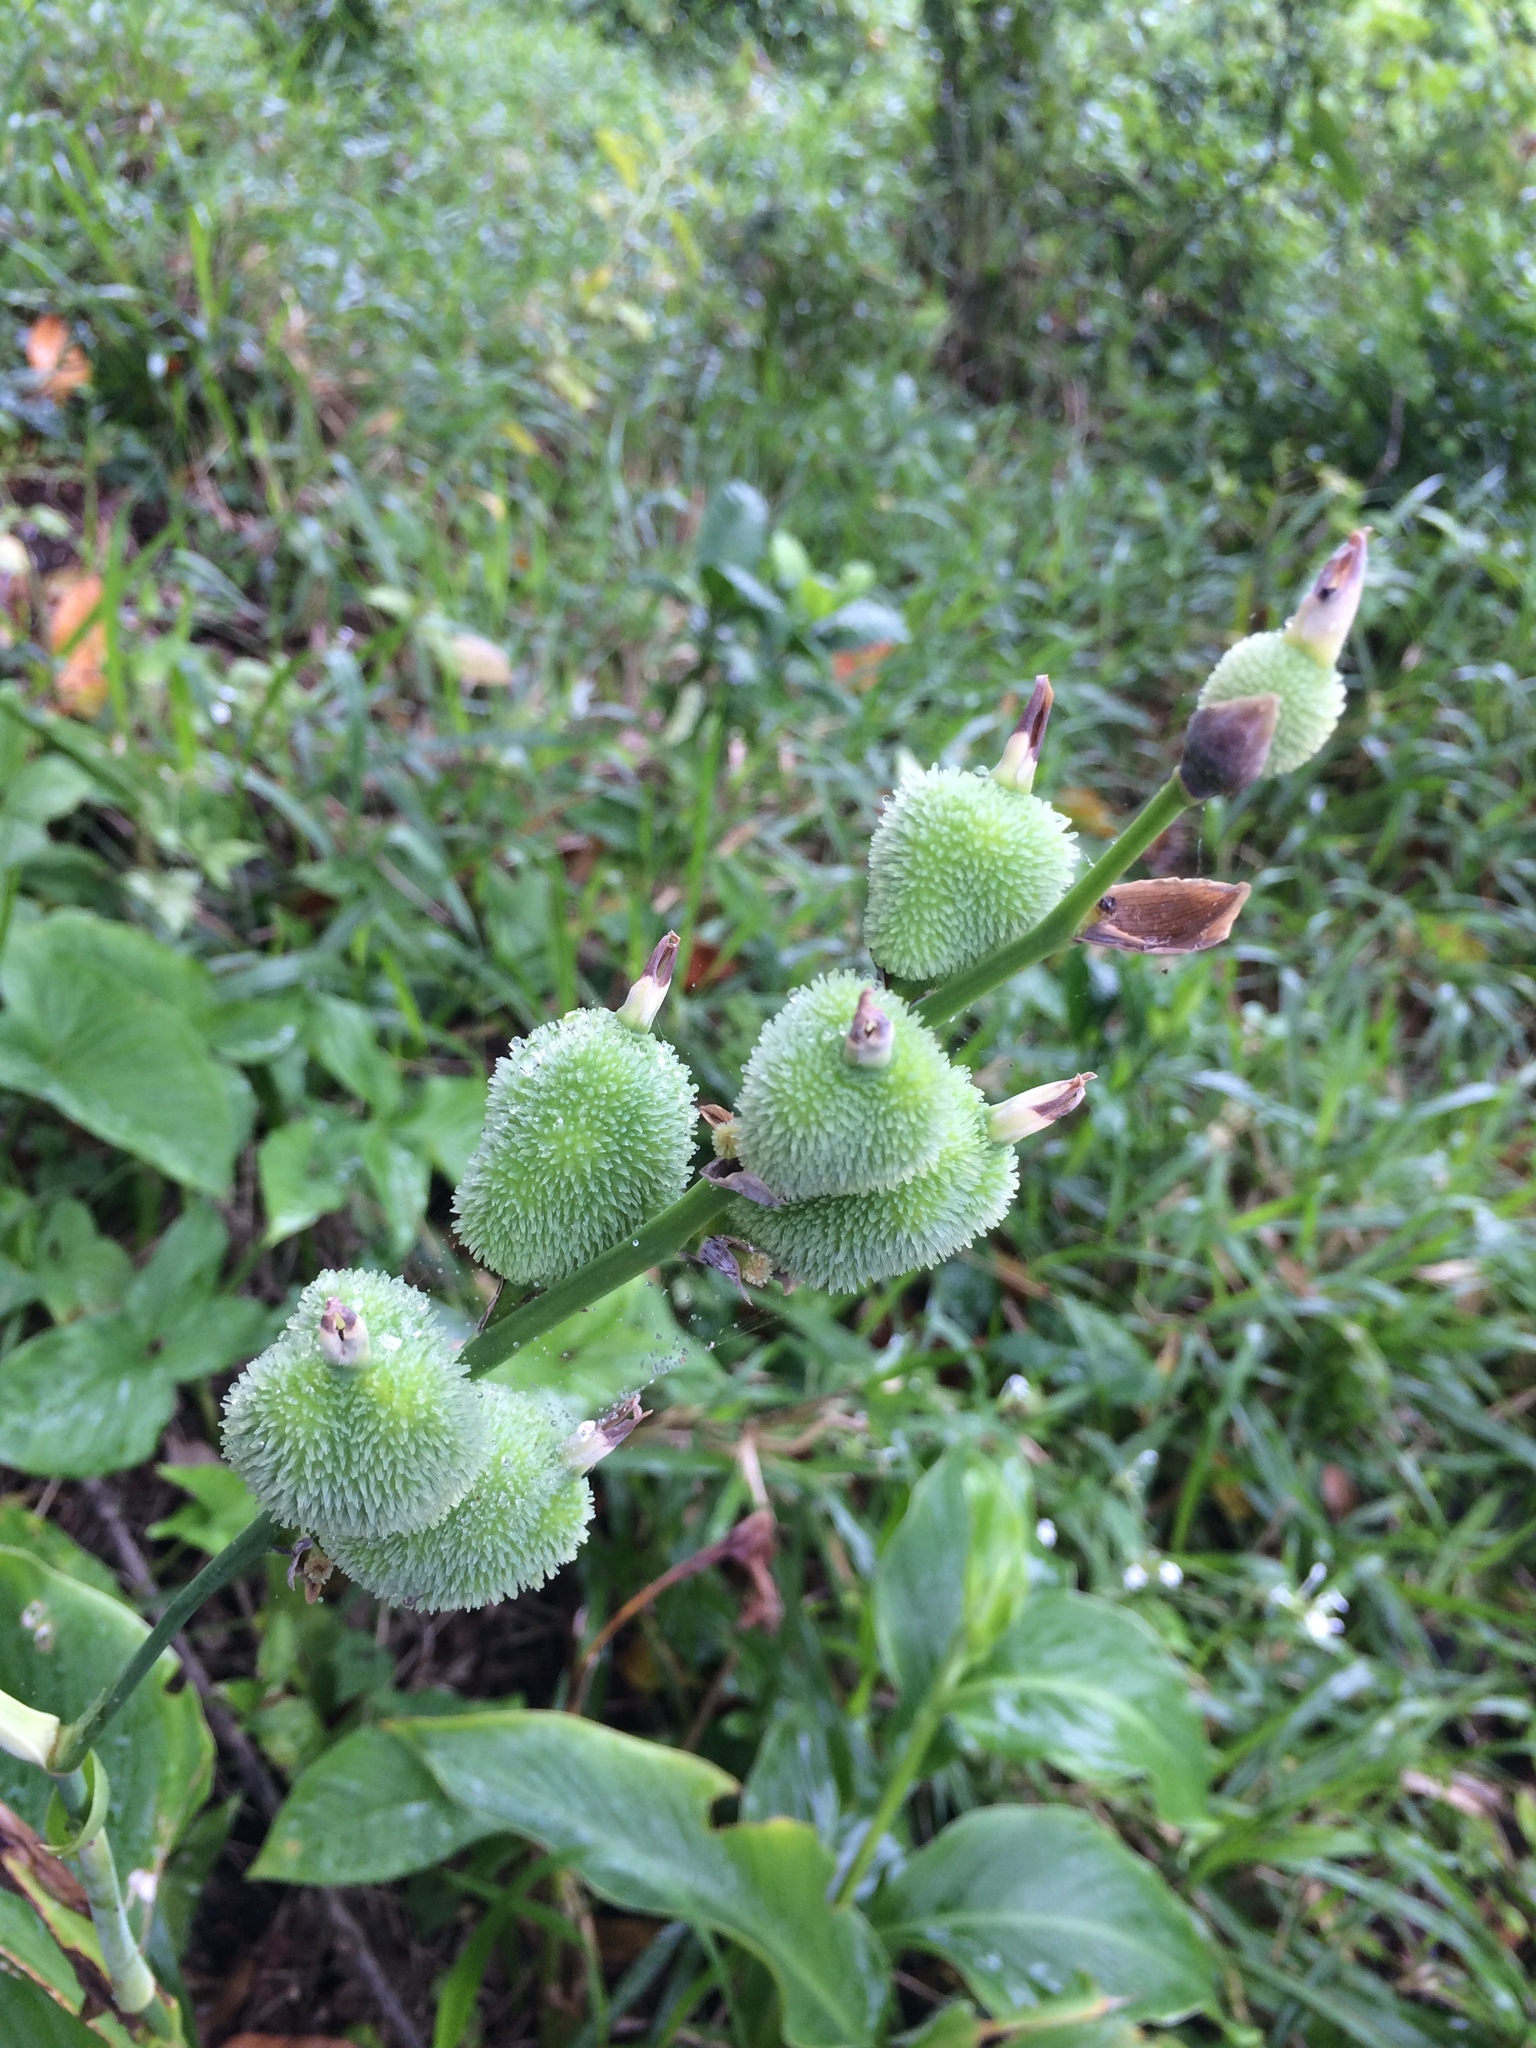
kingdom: Plantae
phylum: Tracheophyta
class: Liliopsida
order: Zingiberales
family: Cannaceae
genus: Canna
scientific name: Canna indica
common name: Indian shot
